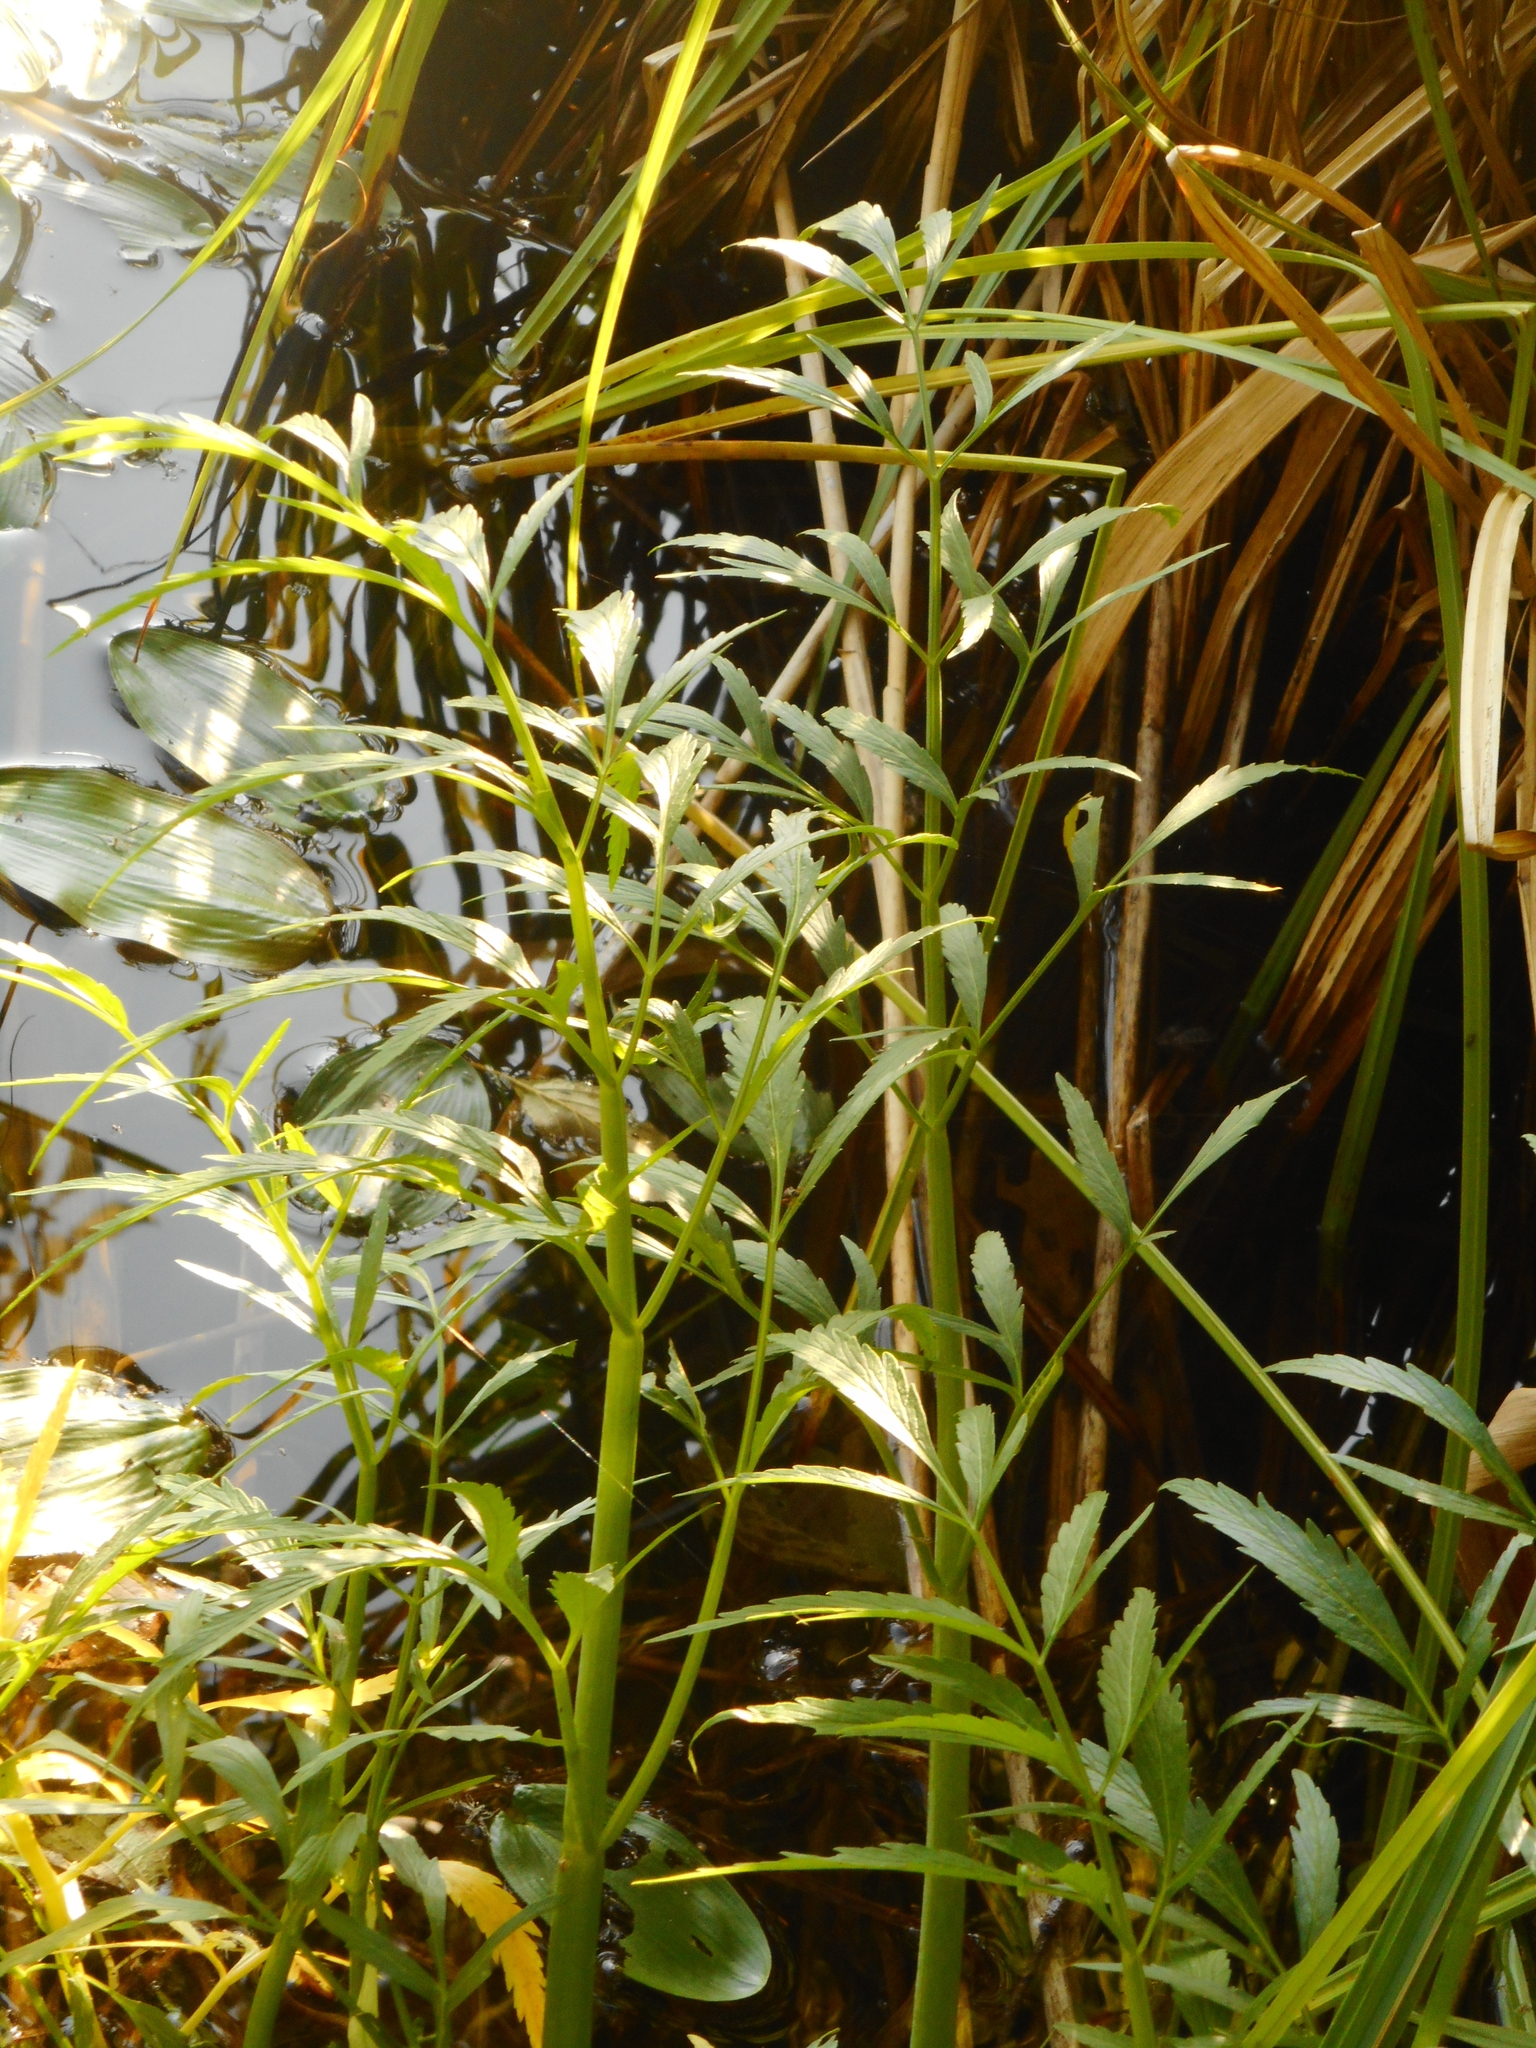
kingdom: Plantae
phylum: Tracheophyta
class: Magnoliopsida
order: Apiales
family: Apiaceae
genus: Cicuta
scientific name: Cicuta virosa
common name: Cowbane
